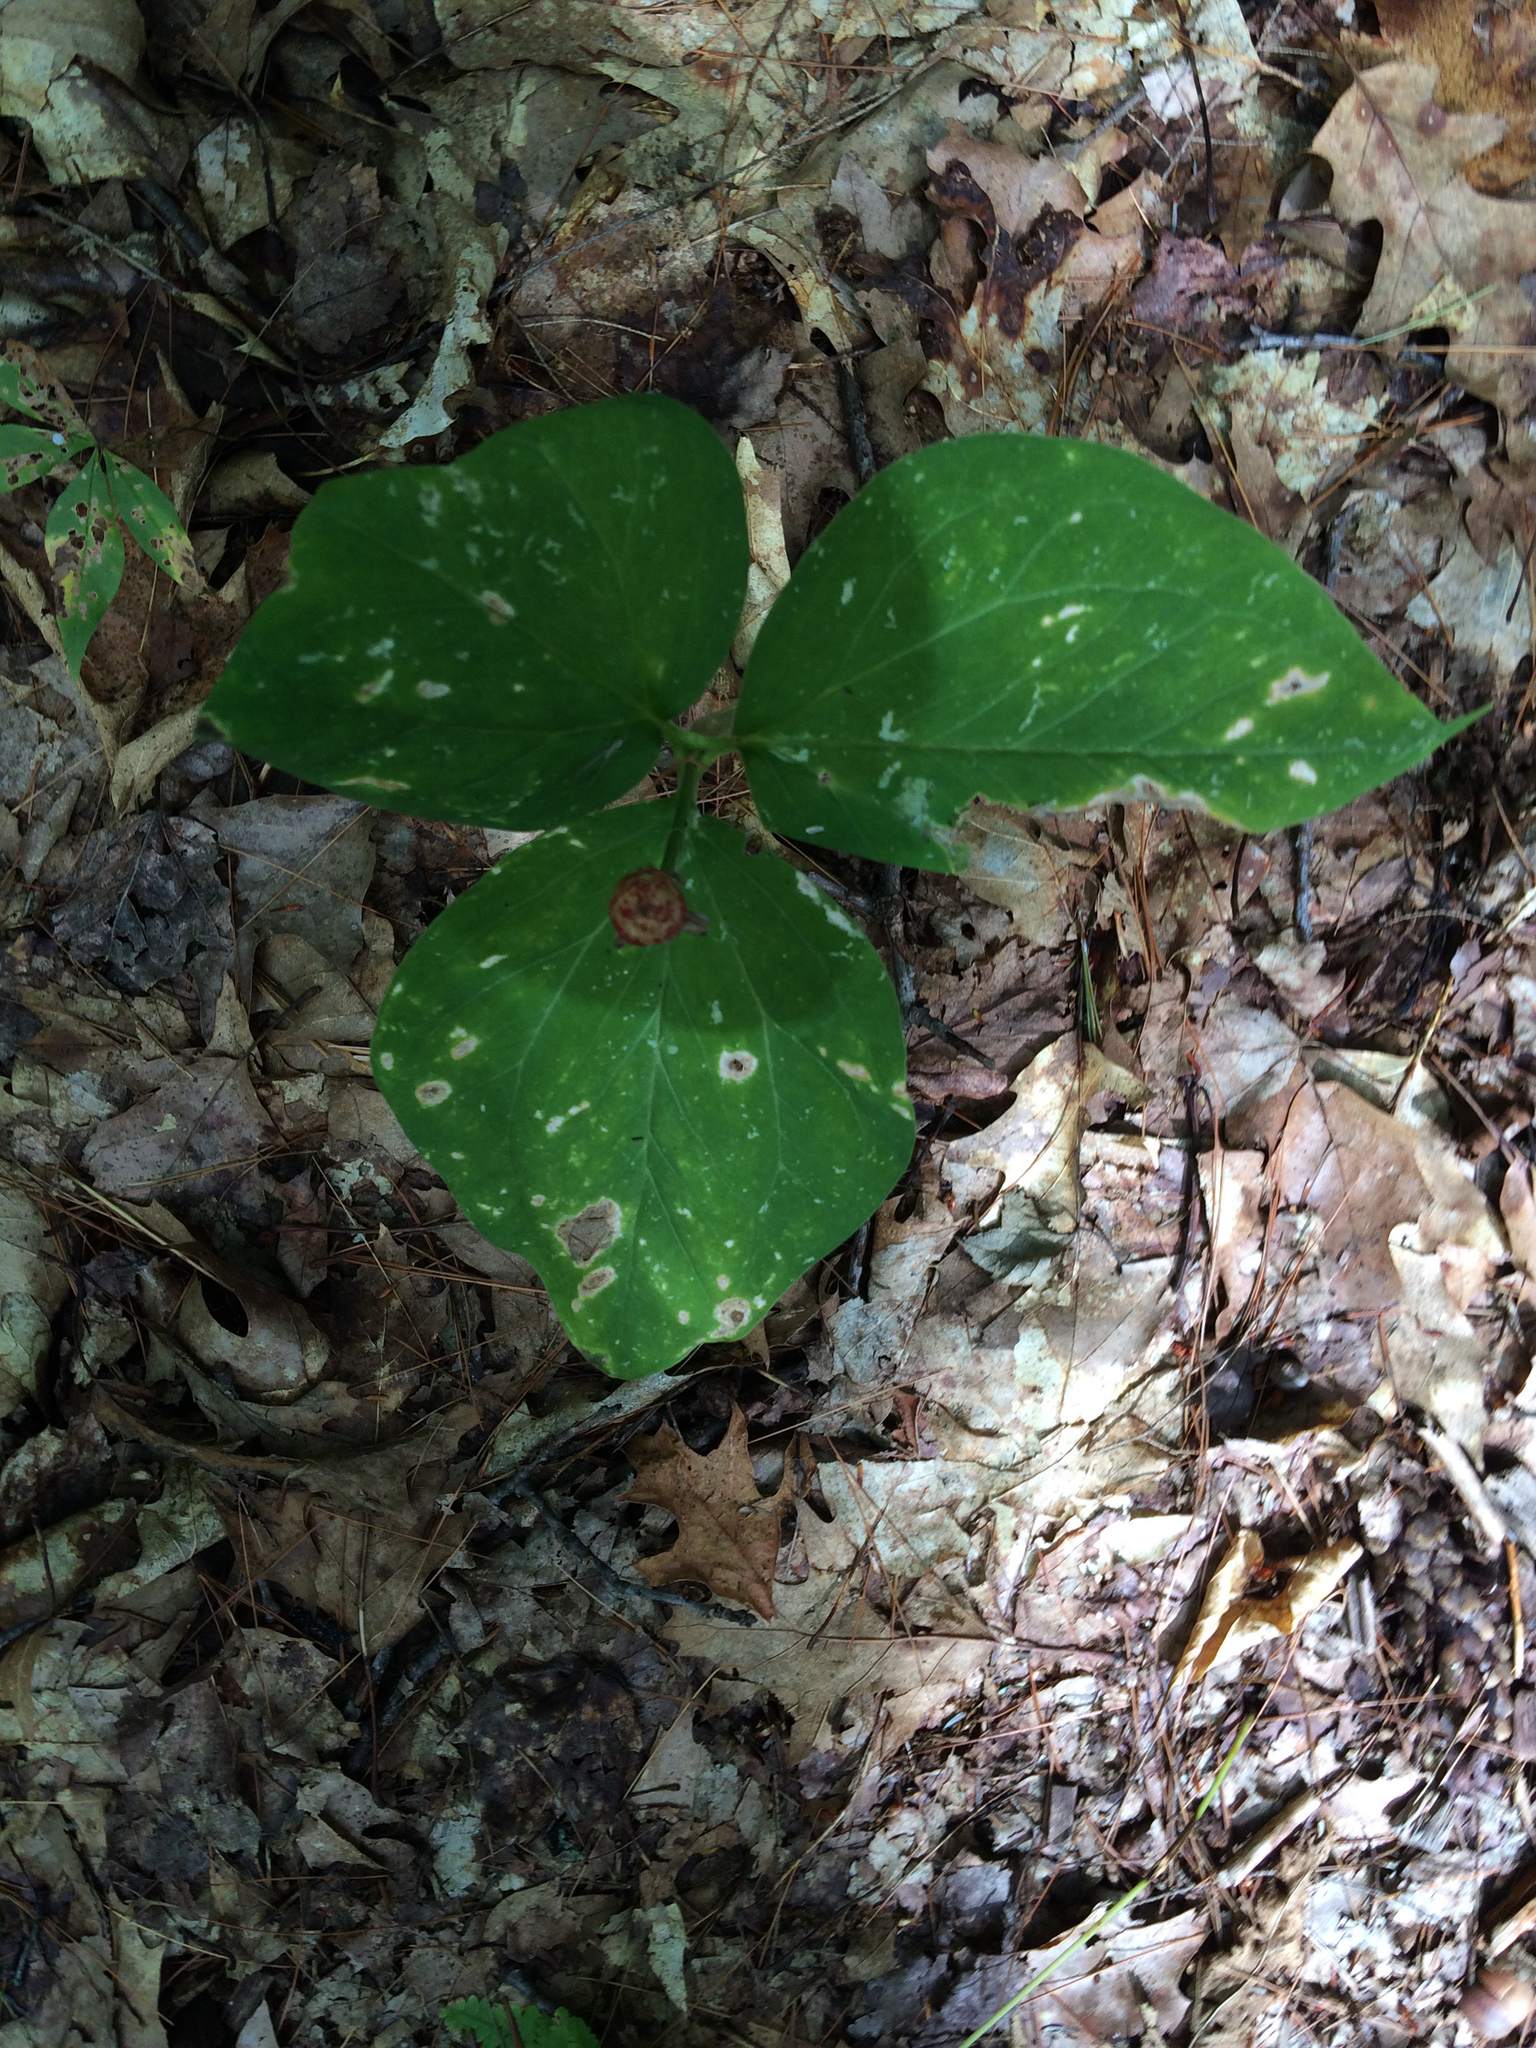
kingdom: Plantae
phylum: Tracheophyta
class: Liliopsida
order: Liliales
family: Melanthiaceae
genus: Trillium
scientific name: Trillium undulatum
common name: Paint trillium
